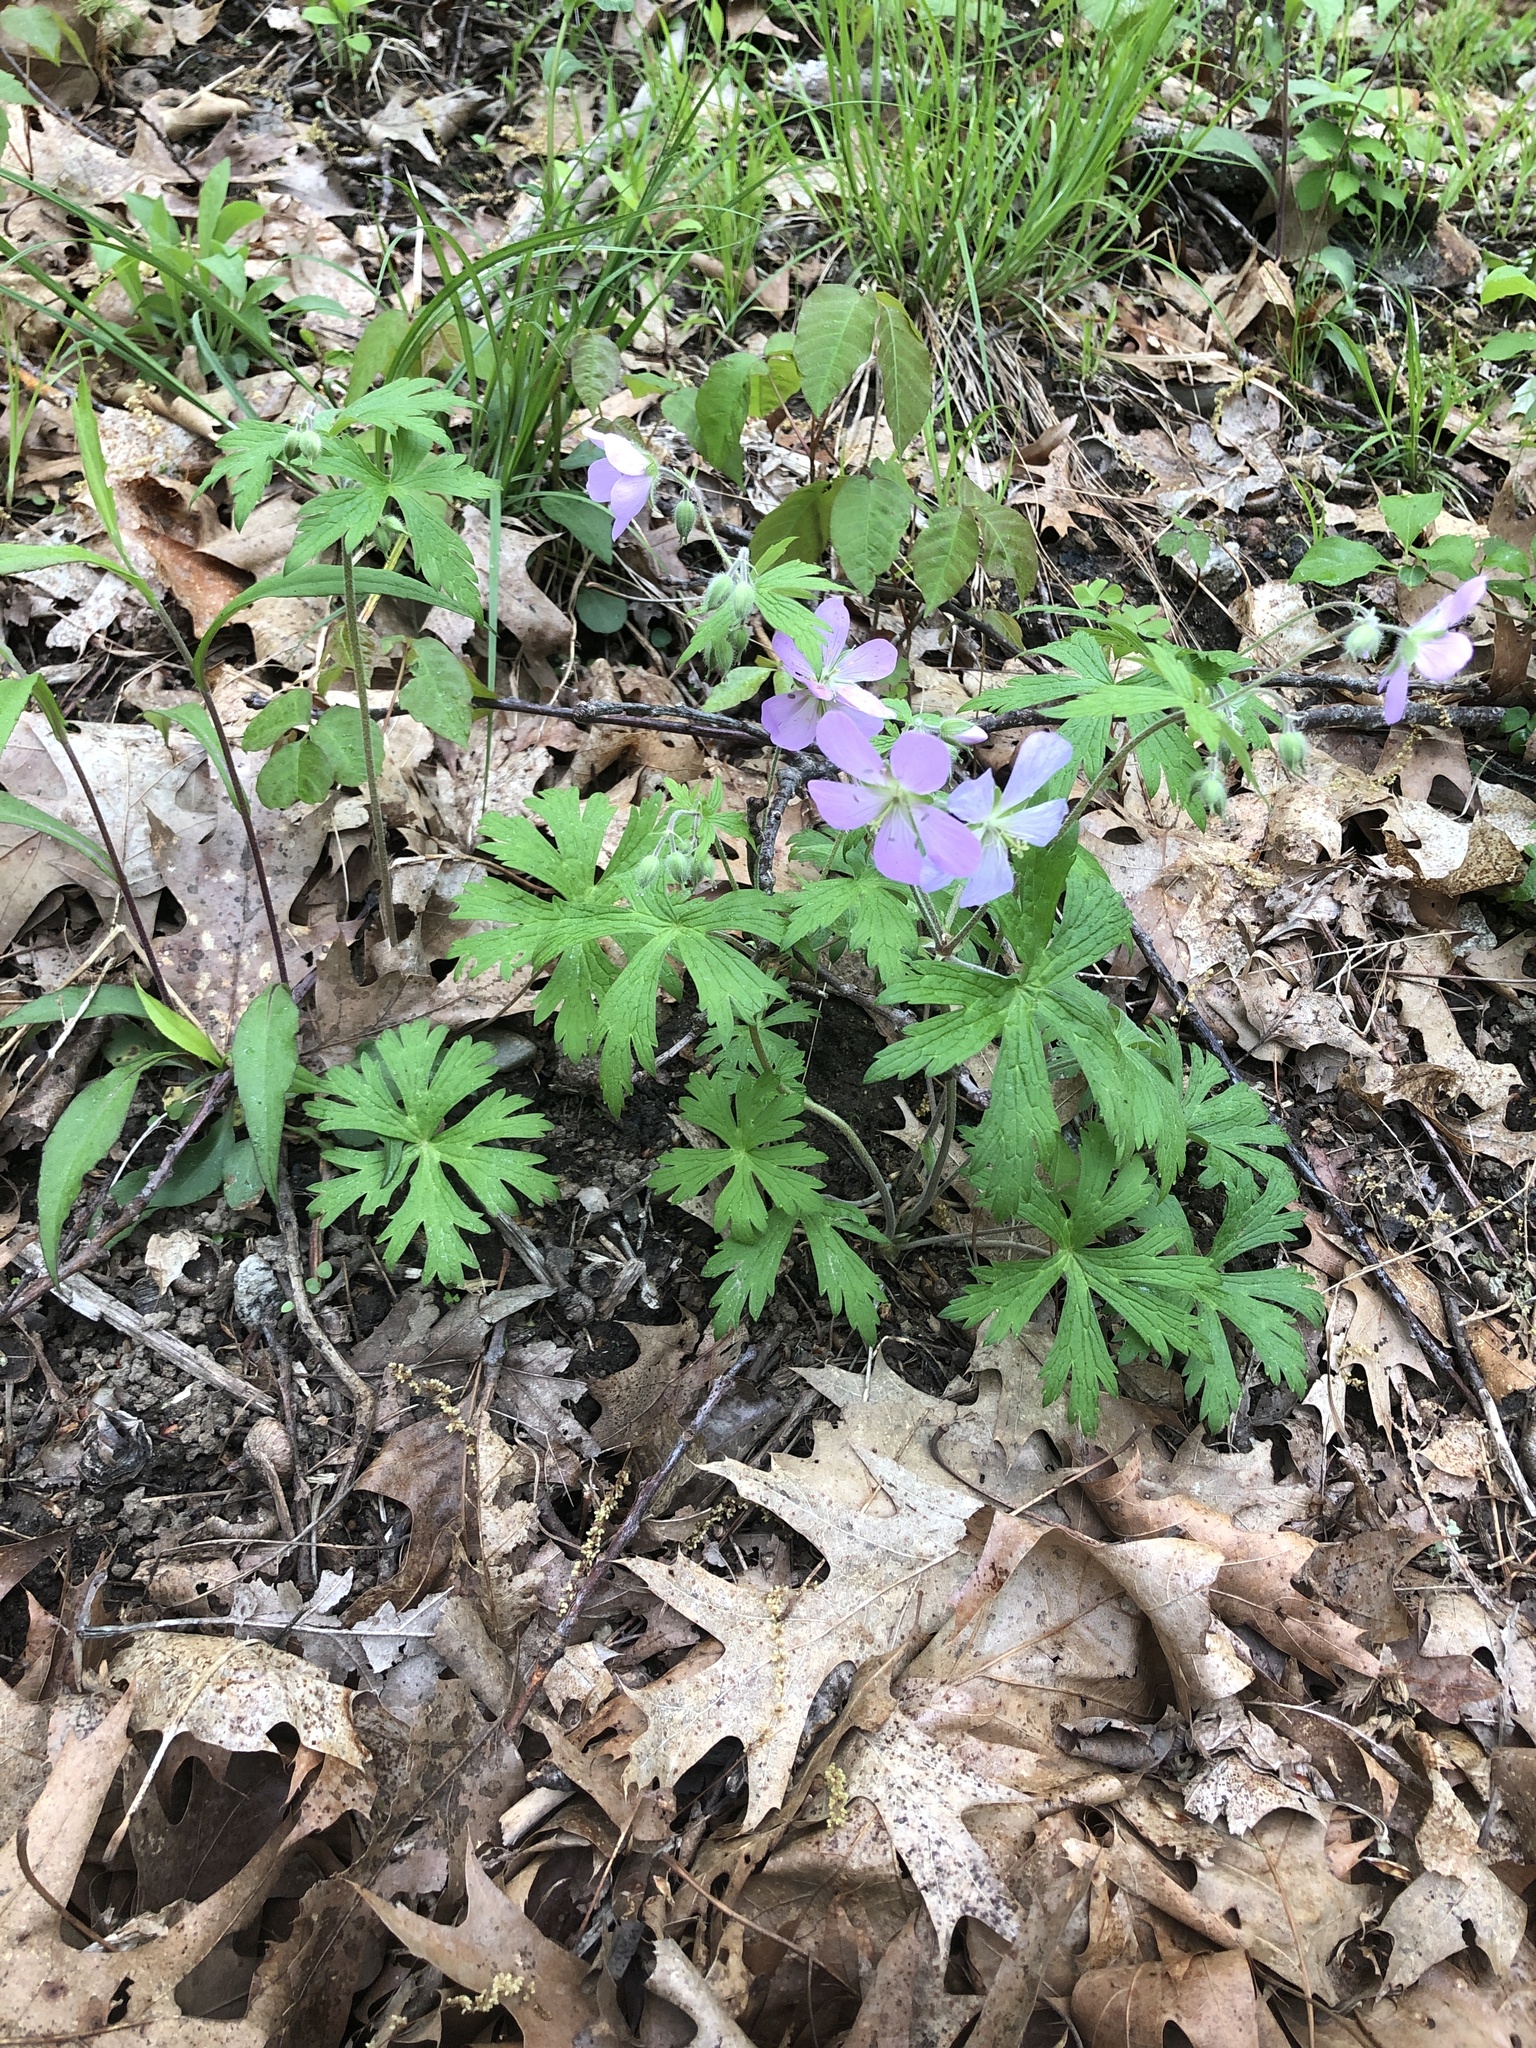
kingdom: Plantae
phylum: Tracheophyta
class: Magnoliopsida
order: Geraniales
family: Geraniaceae
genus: Geranium
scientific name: Geranium maculatum
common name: Spotted geranium
